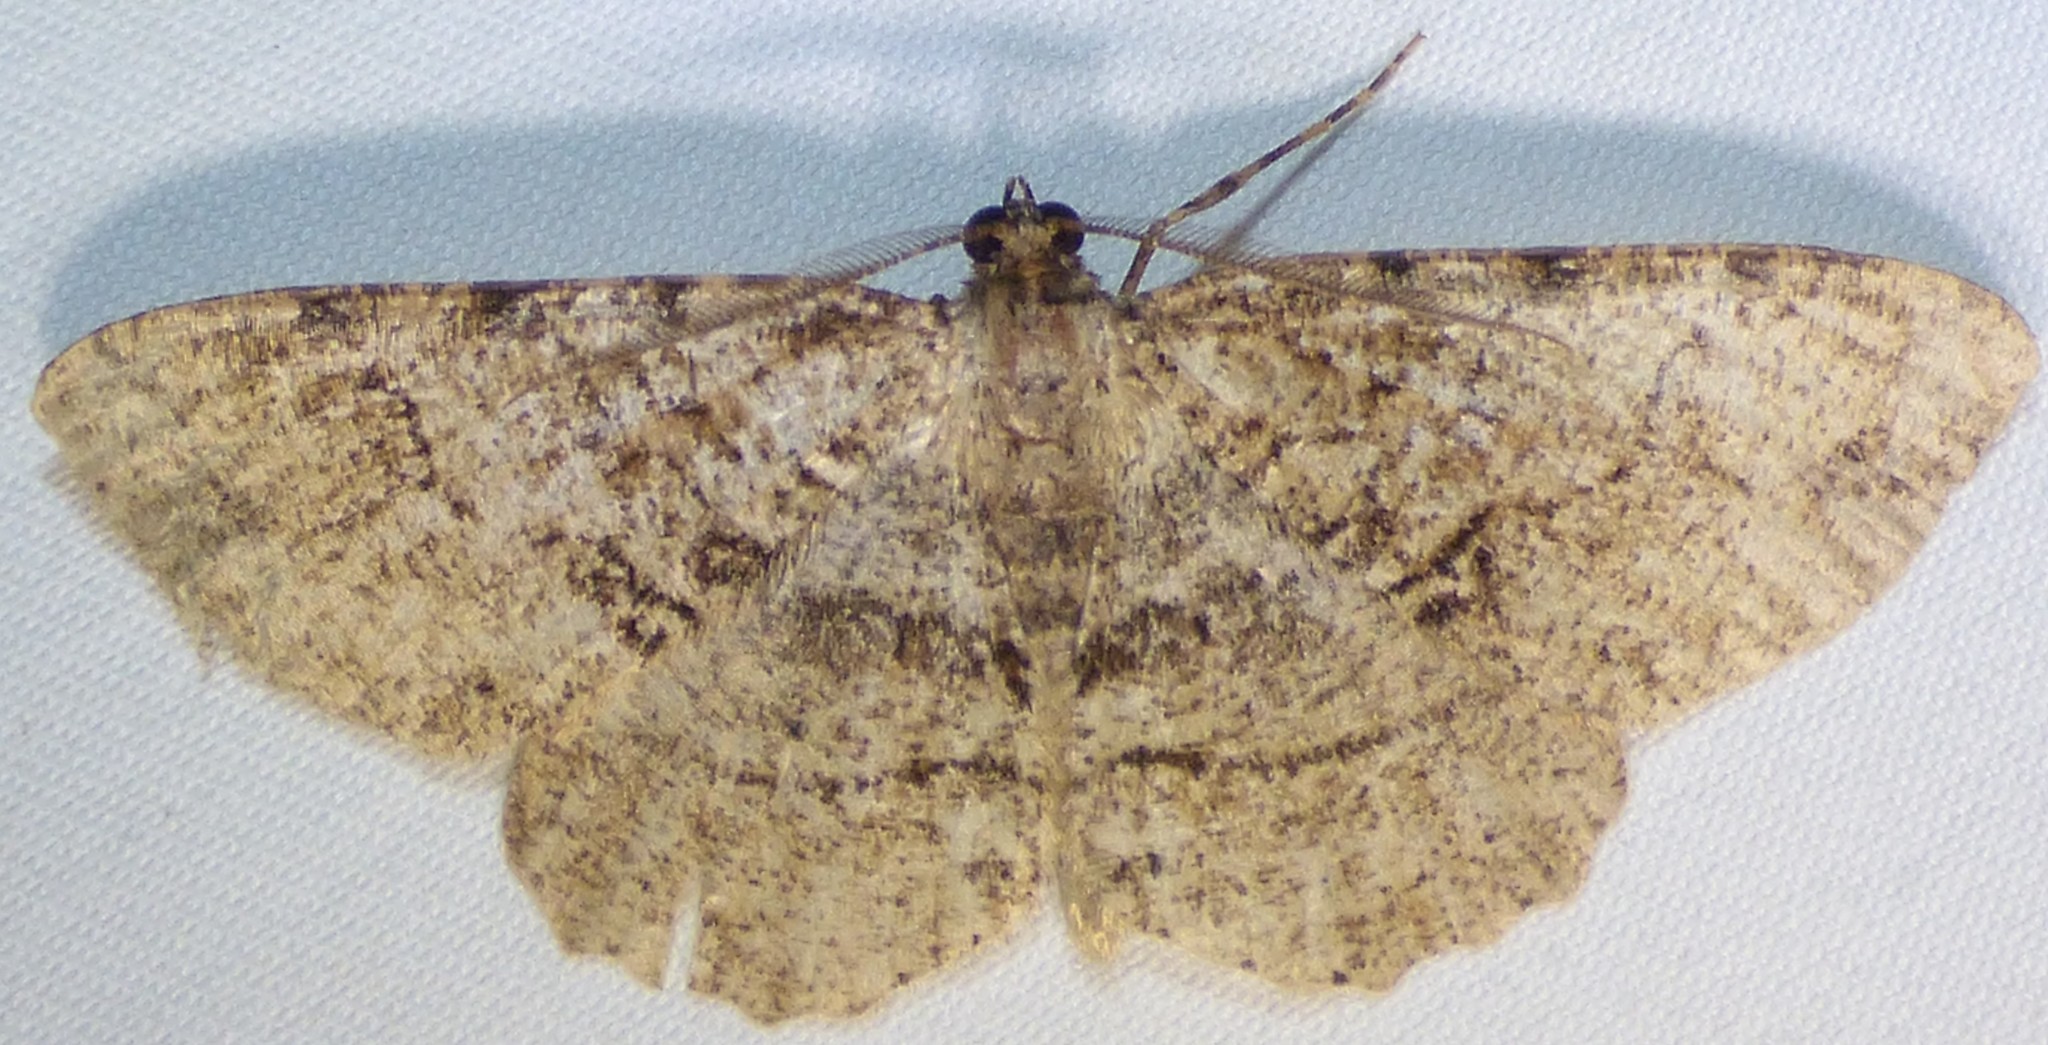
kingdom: Animalia
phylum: Arthropoda
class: Insecta
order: Lepidoptera
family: Geometridae
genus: Melanolophia
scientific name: Melanolophia canadaria
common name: Canadian melanolophia
